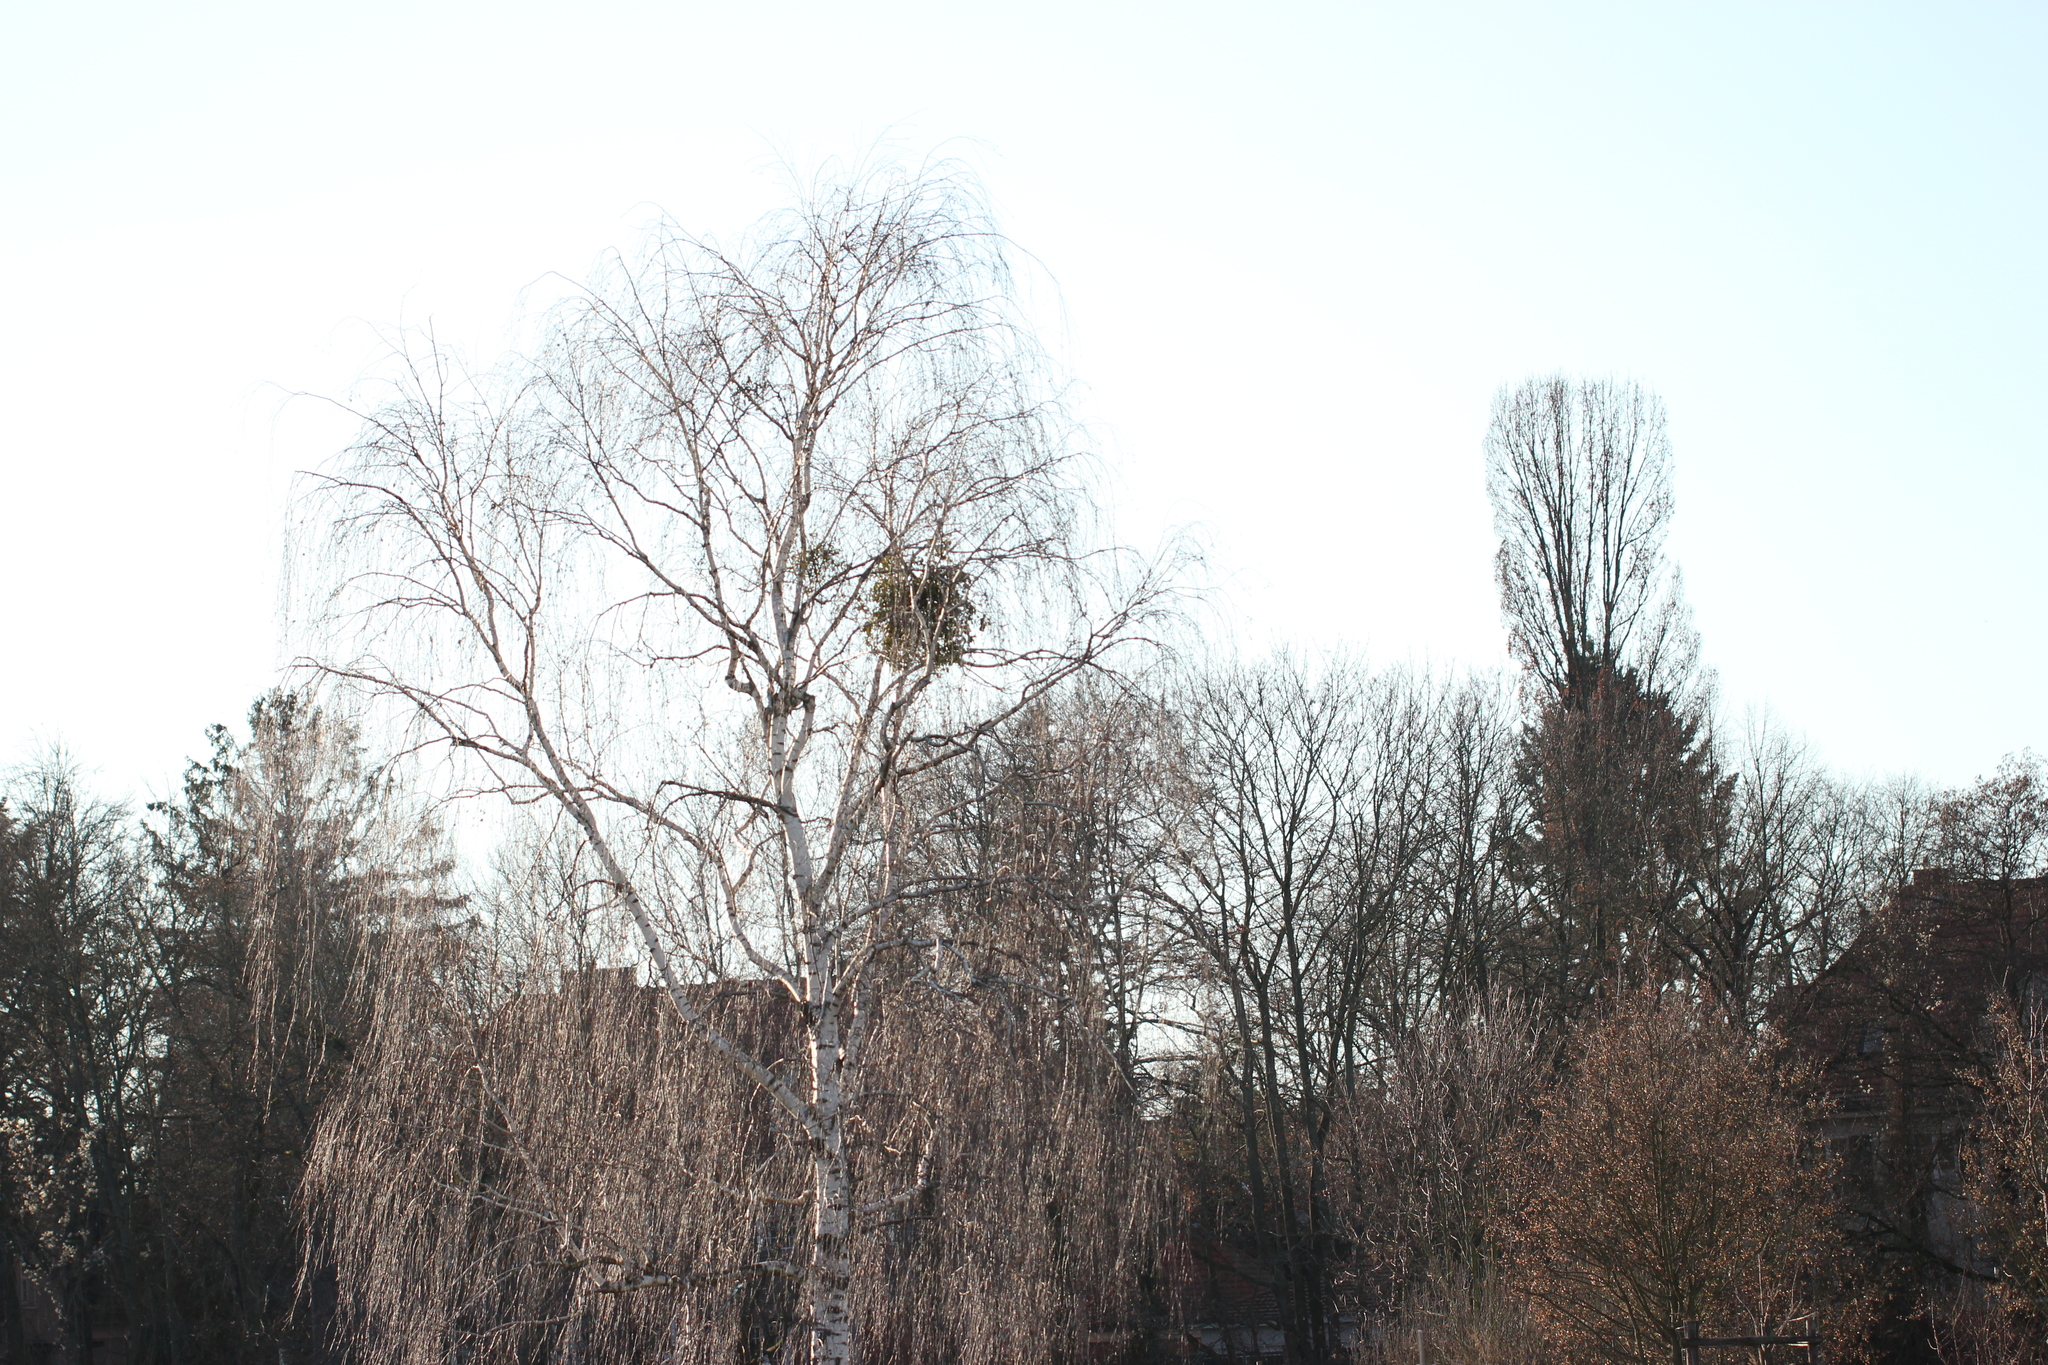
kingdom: Plantae
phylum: Tracheophyta
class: Magnoliopsida
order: Fagales
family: Betulaceae
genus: Betula
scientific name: Betula pendula
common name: Silver birch
